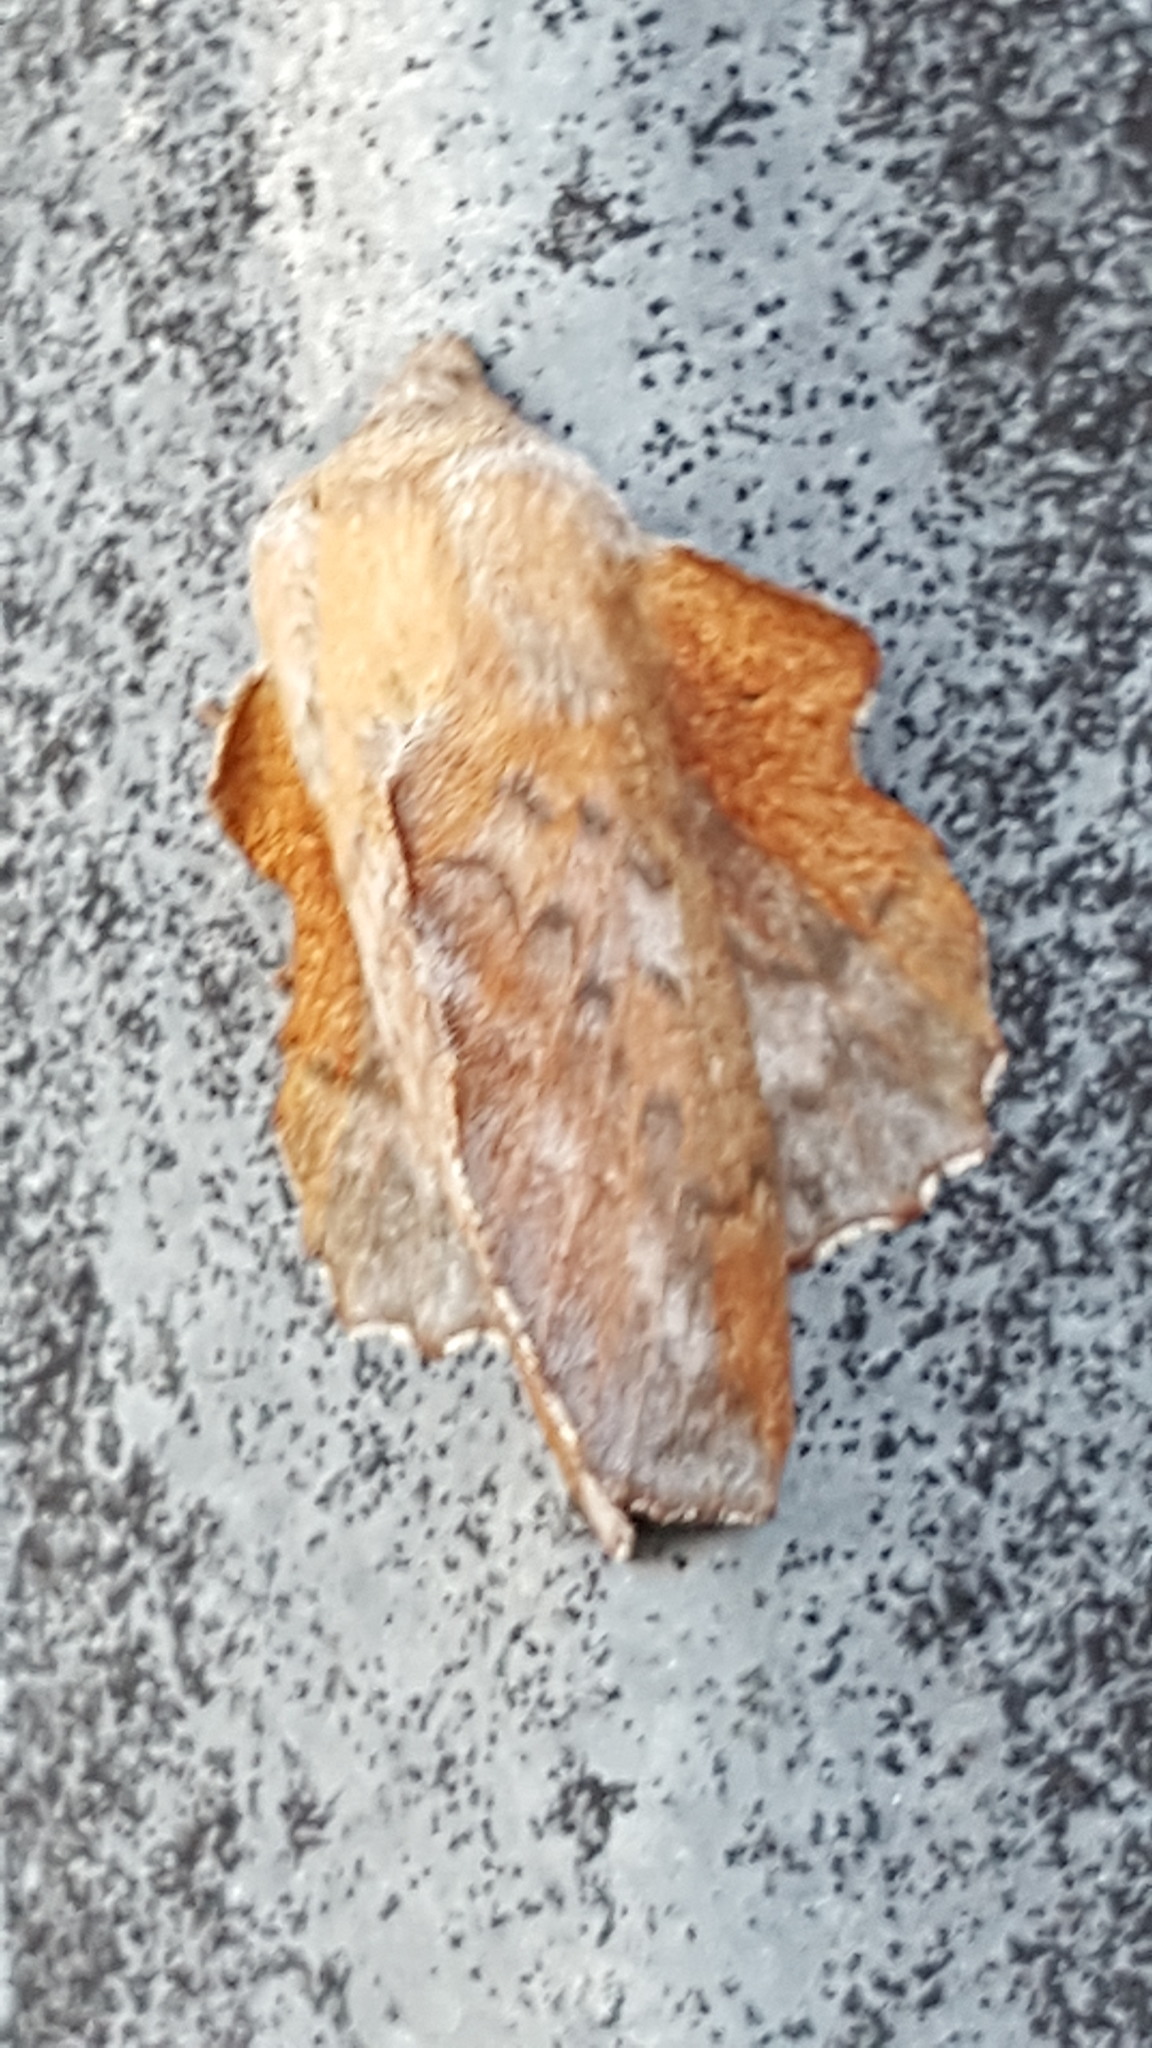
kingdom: Animalia
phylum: Arthropoda
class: Insecta
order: Lepidoptera
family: Lasiocampidae
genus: Phyllodesma
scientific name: Phyllodesma americana
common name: American lappet moth
